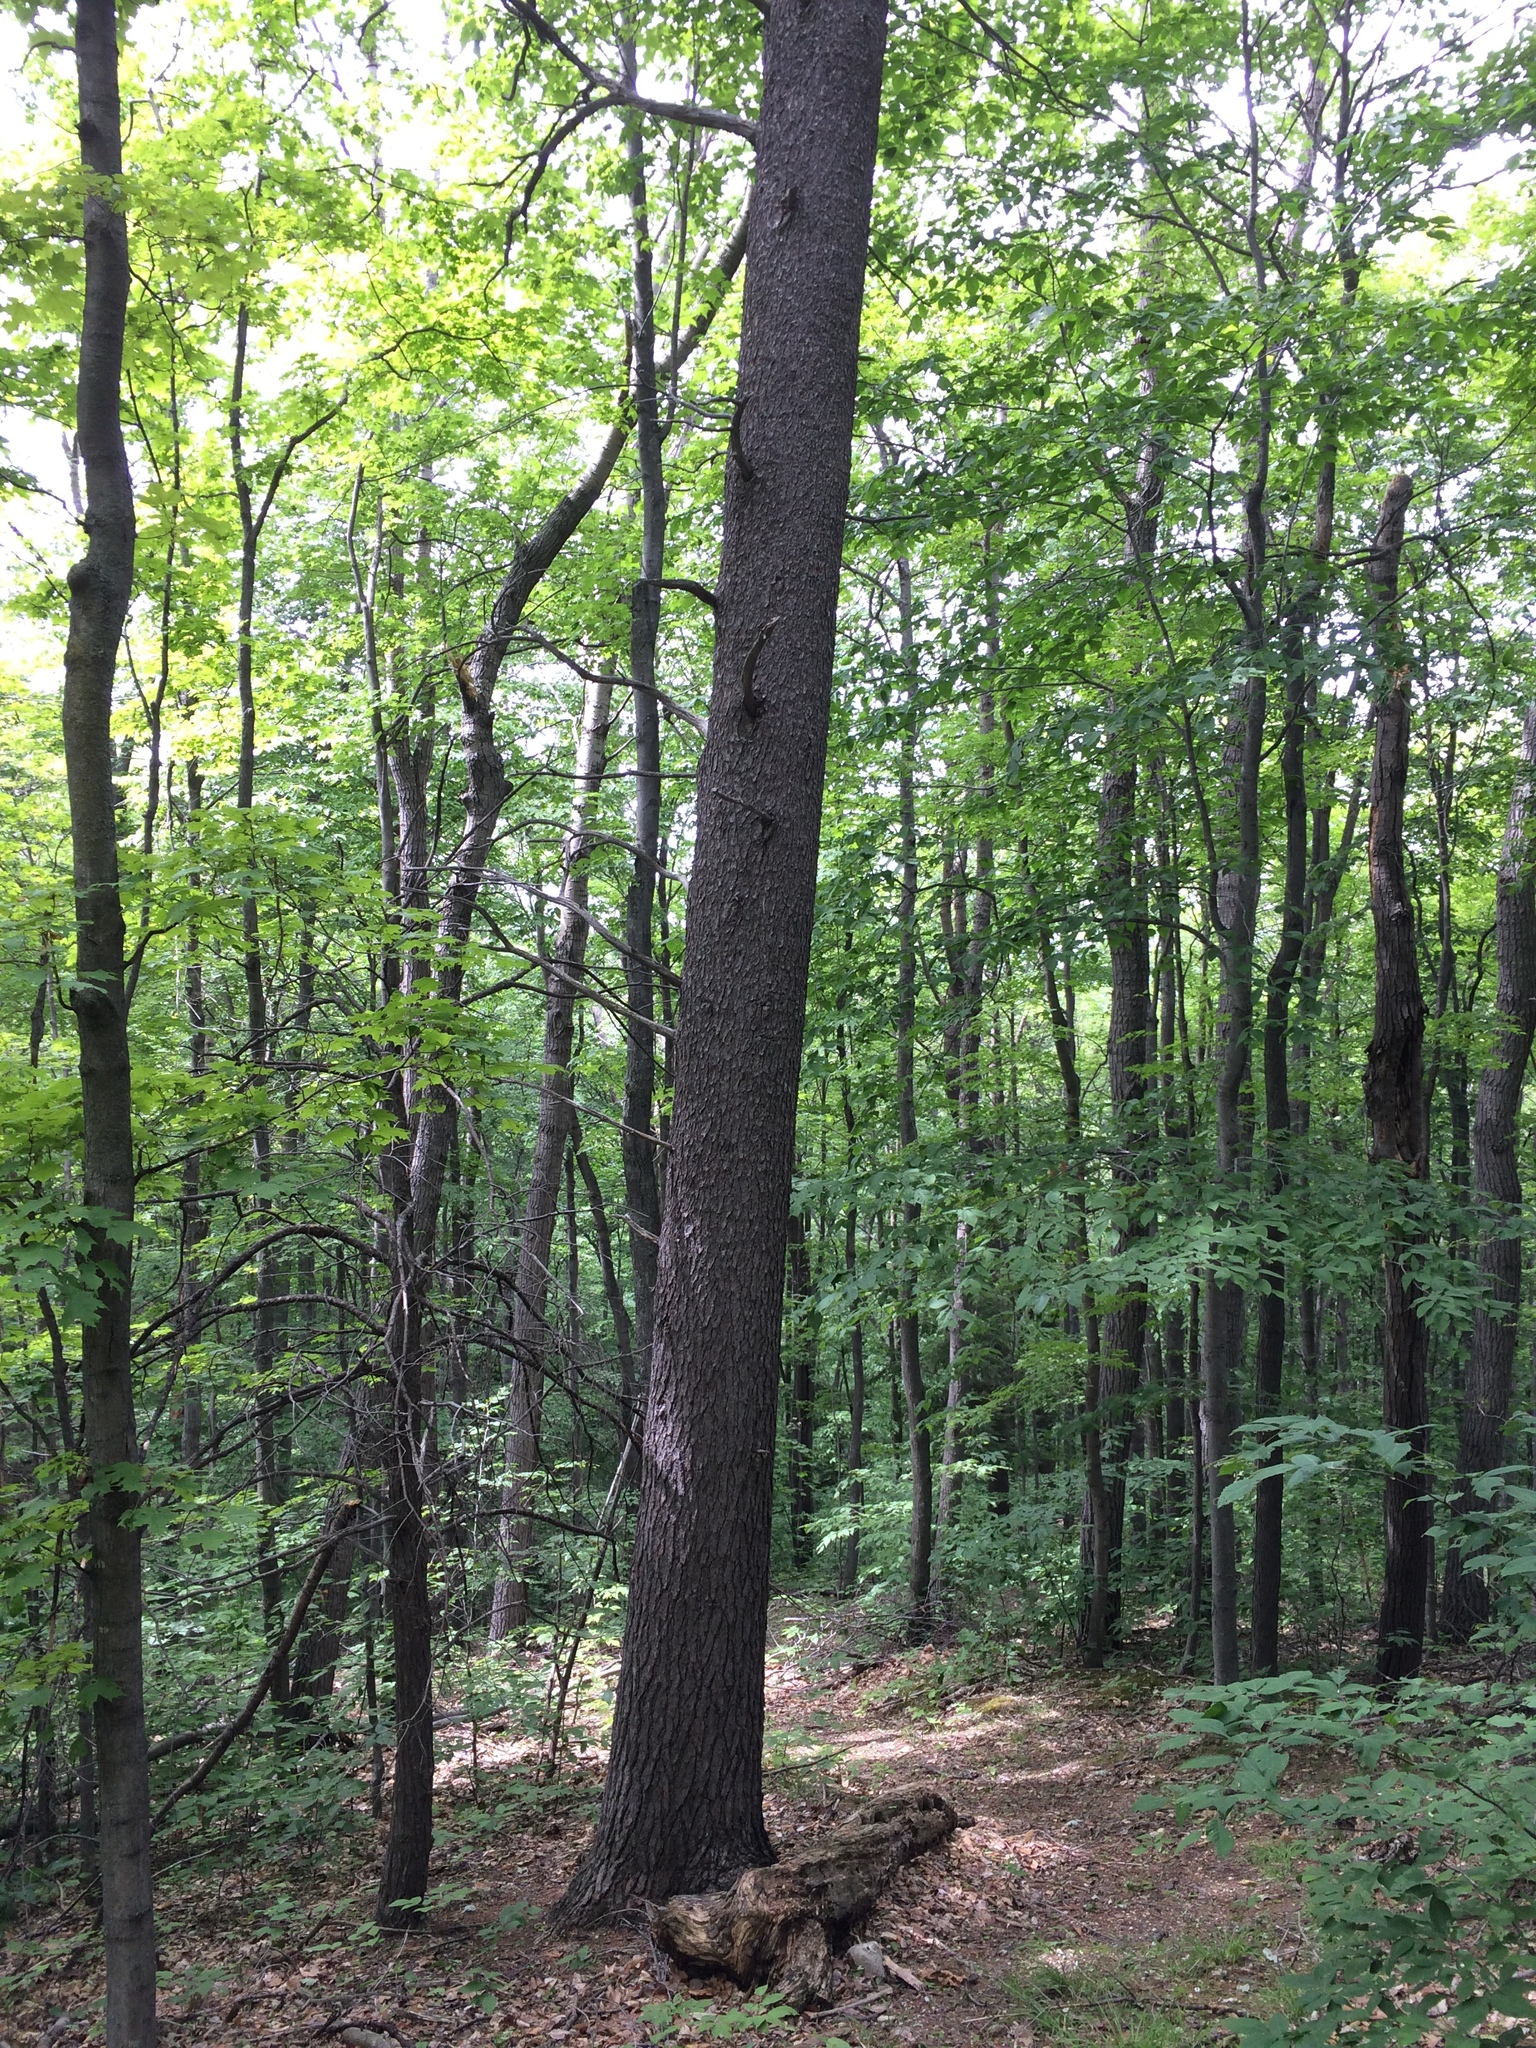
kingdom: Plantae
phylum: Tracheophyta
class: Pinopsida
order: Pinales
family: Pinaceae
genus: Pinus
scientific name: Pinus strobus
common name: Weymouth pine
